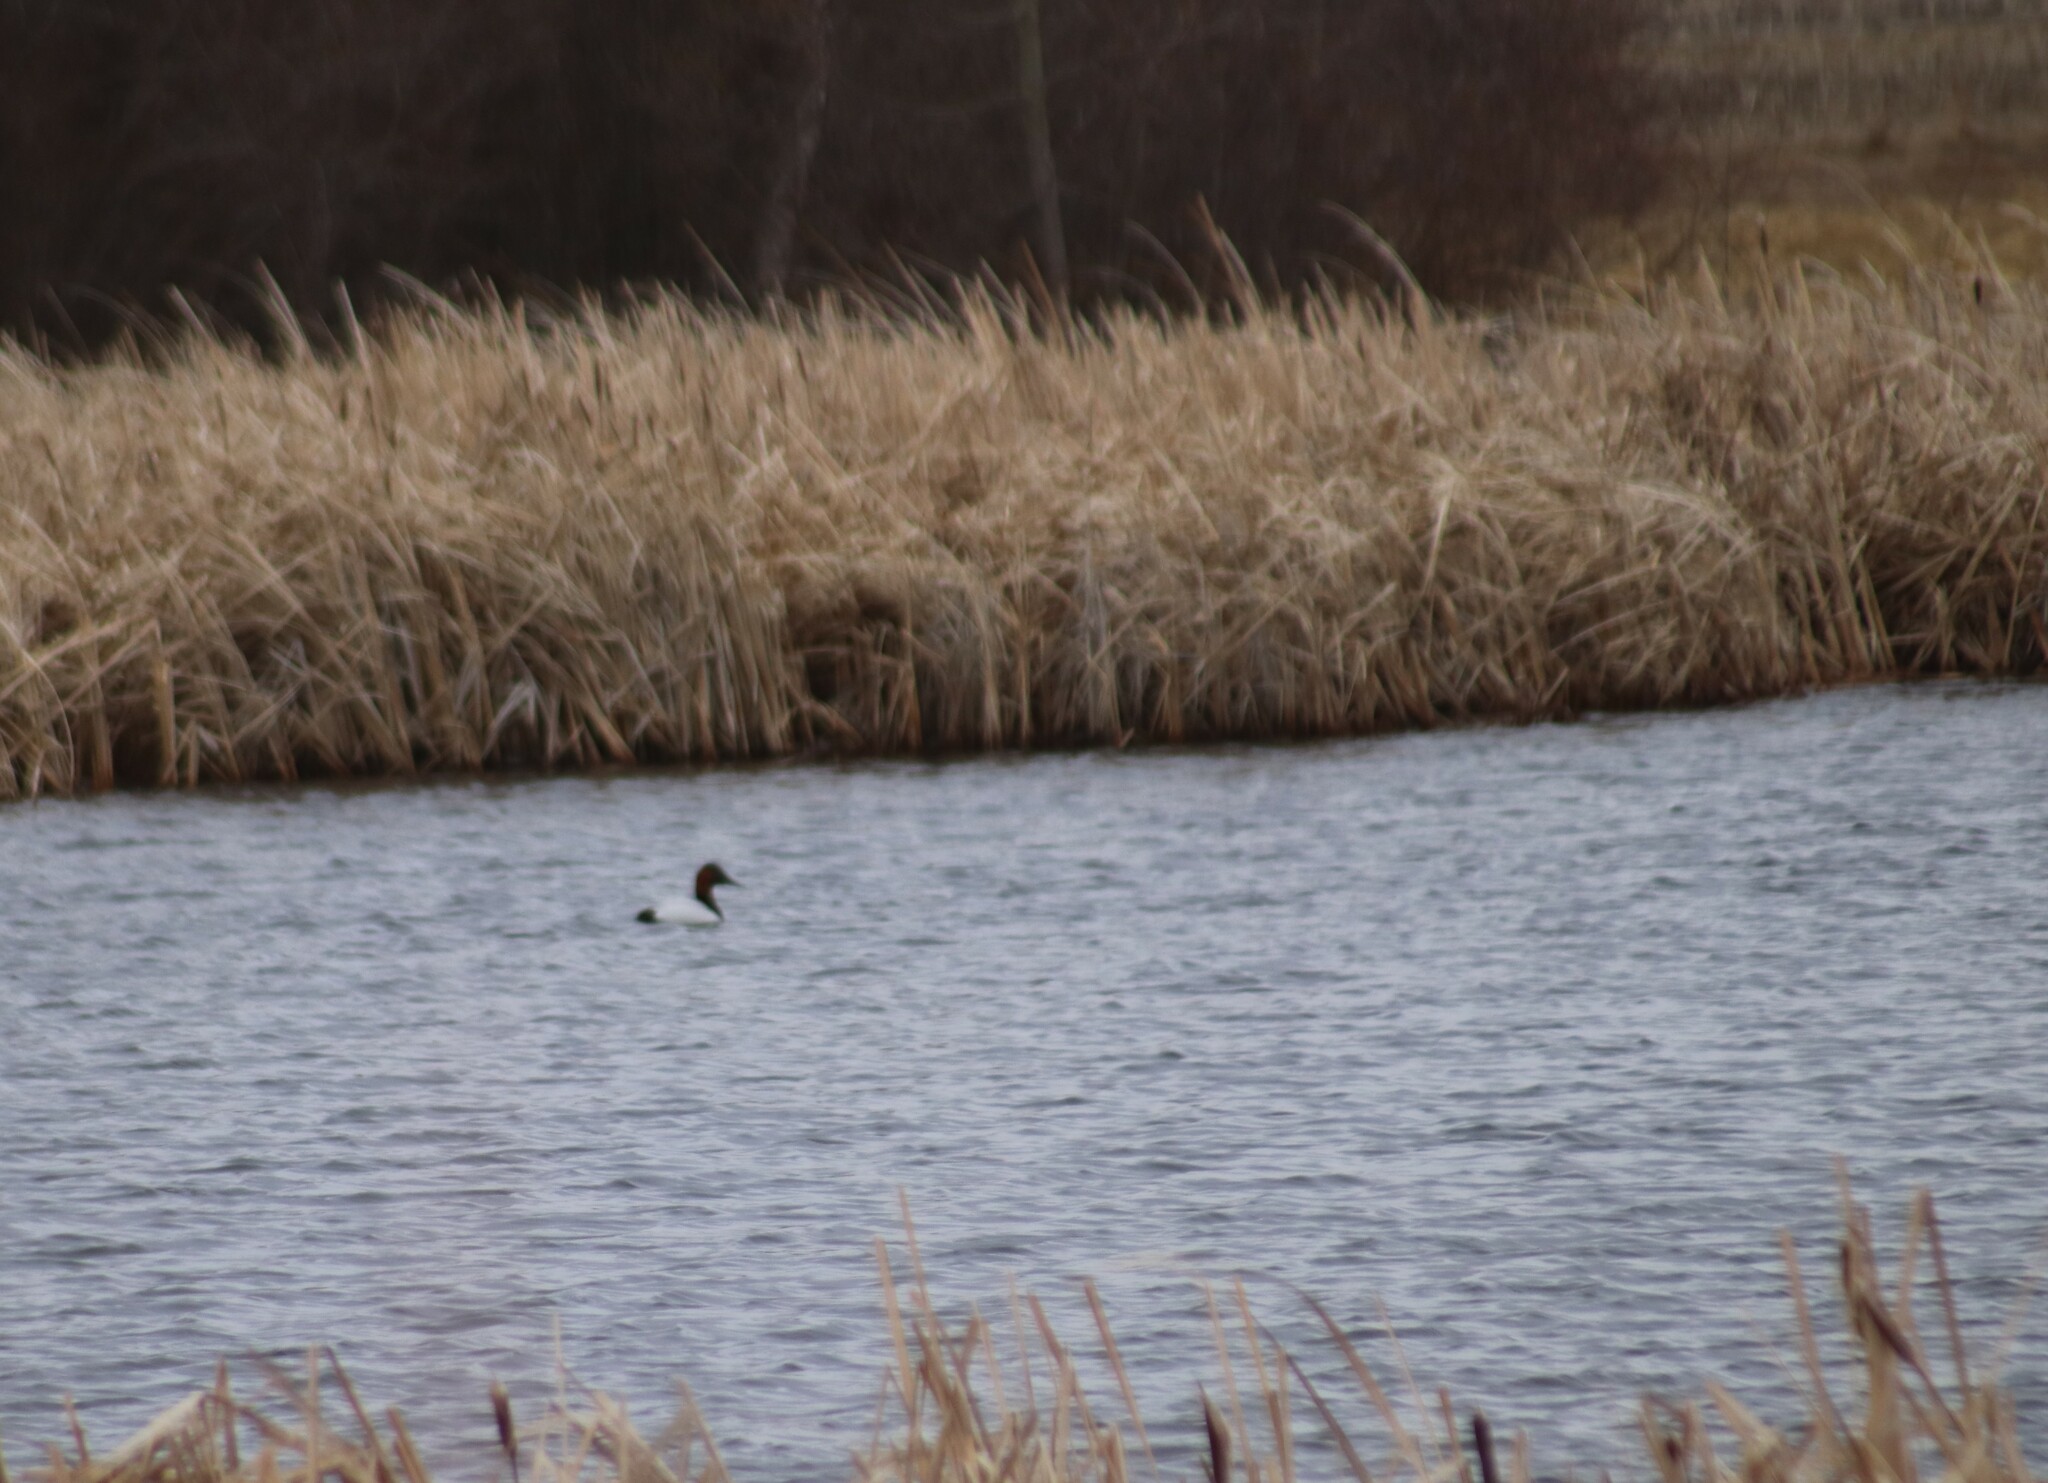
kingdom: Animalia
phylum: Chordata
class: Aves
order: Anseriformes
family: Anatidae
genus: Aythya
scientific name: Aythya valisineria
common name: Canvasback
